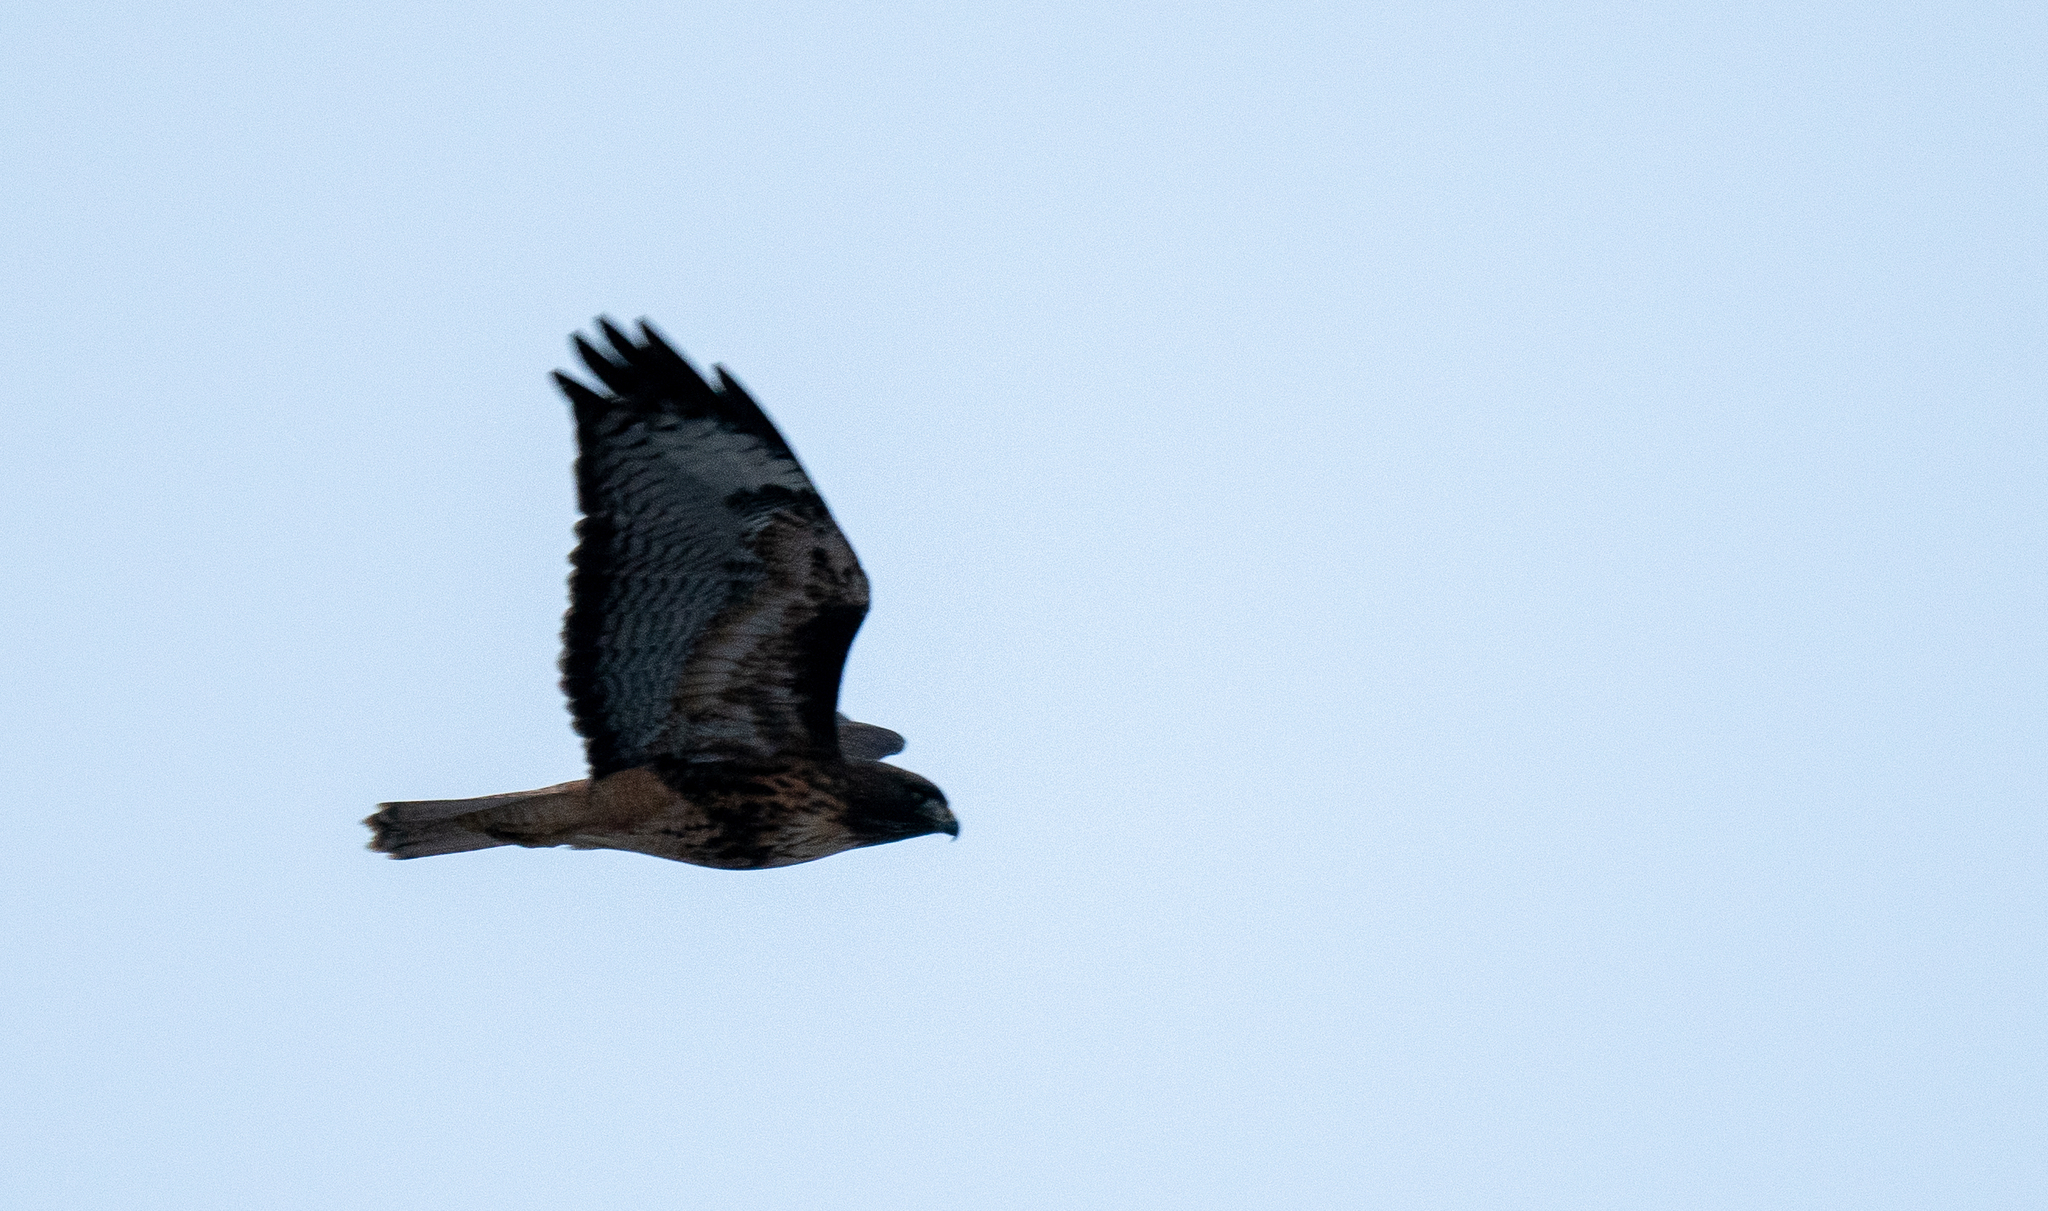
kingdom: Animalia
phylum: Chordata
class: Aves
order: Accipitriformes
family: Accipitridae
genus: Buteo
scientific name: Buteo jamaicensis
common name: Red-tailed hawk
